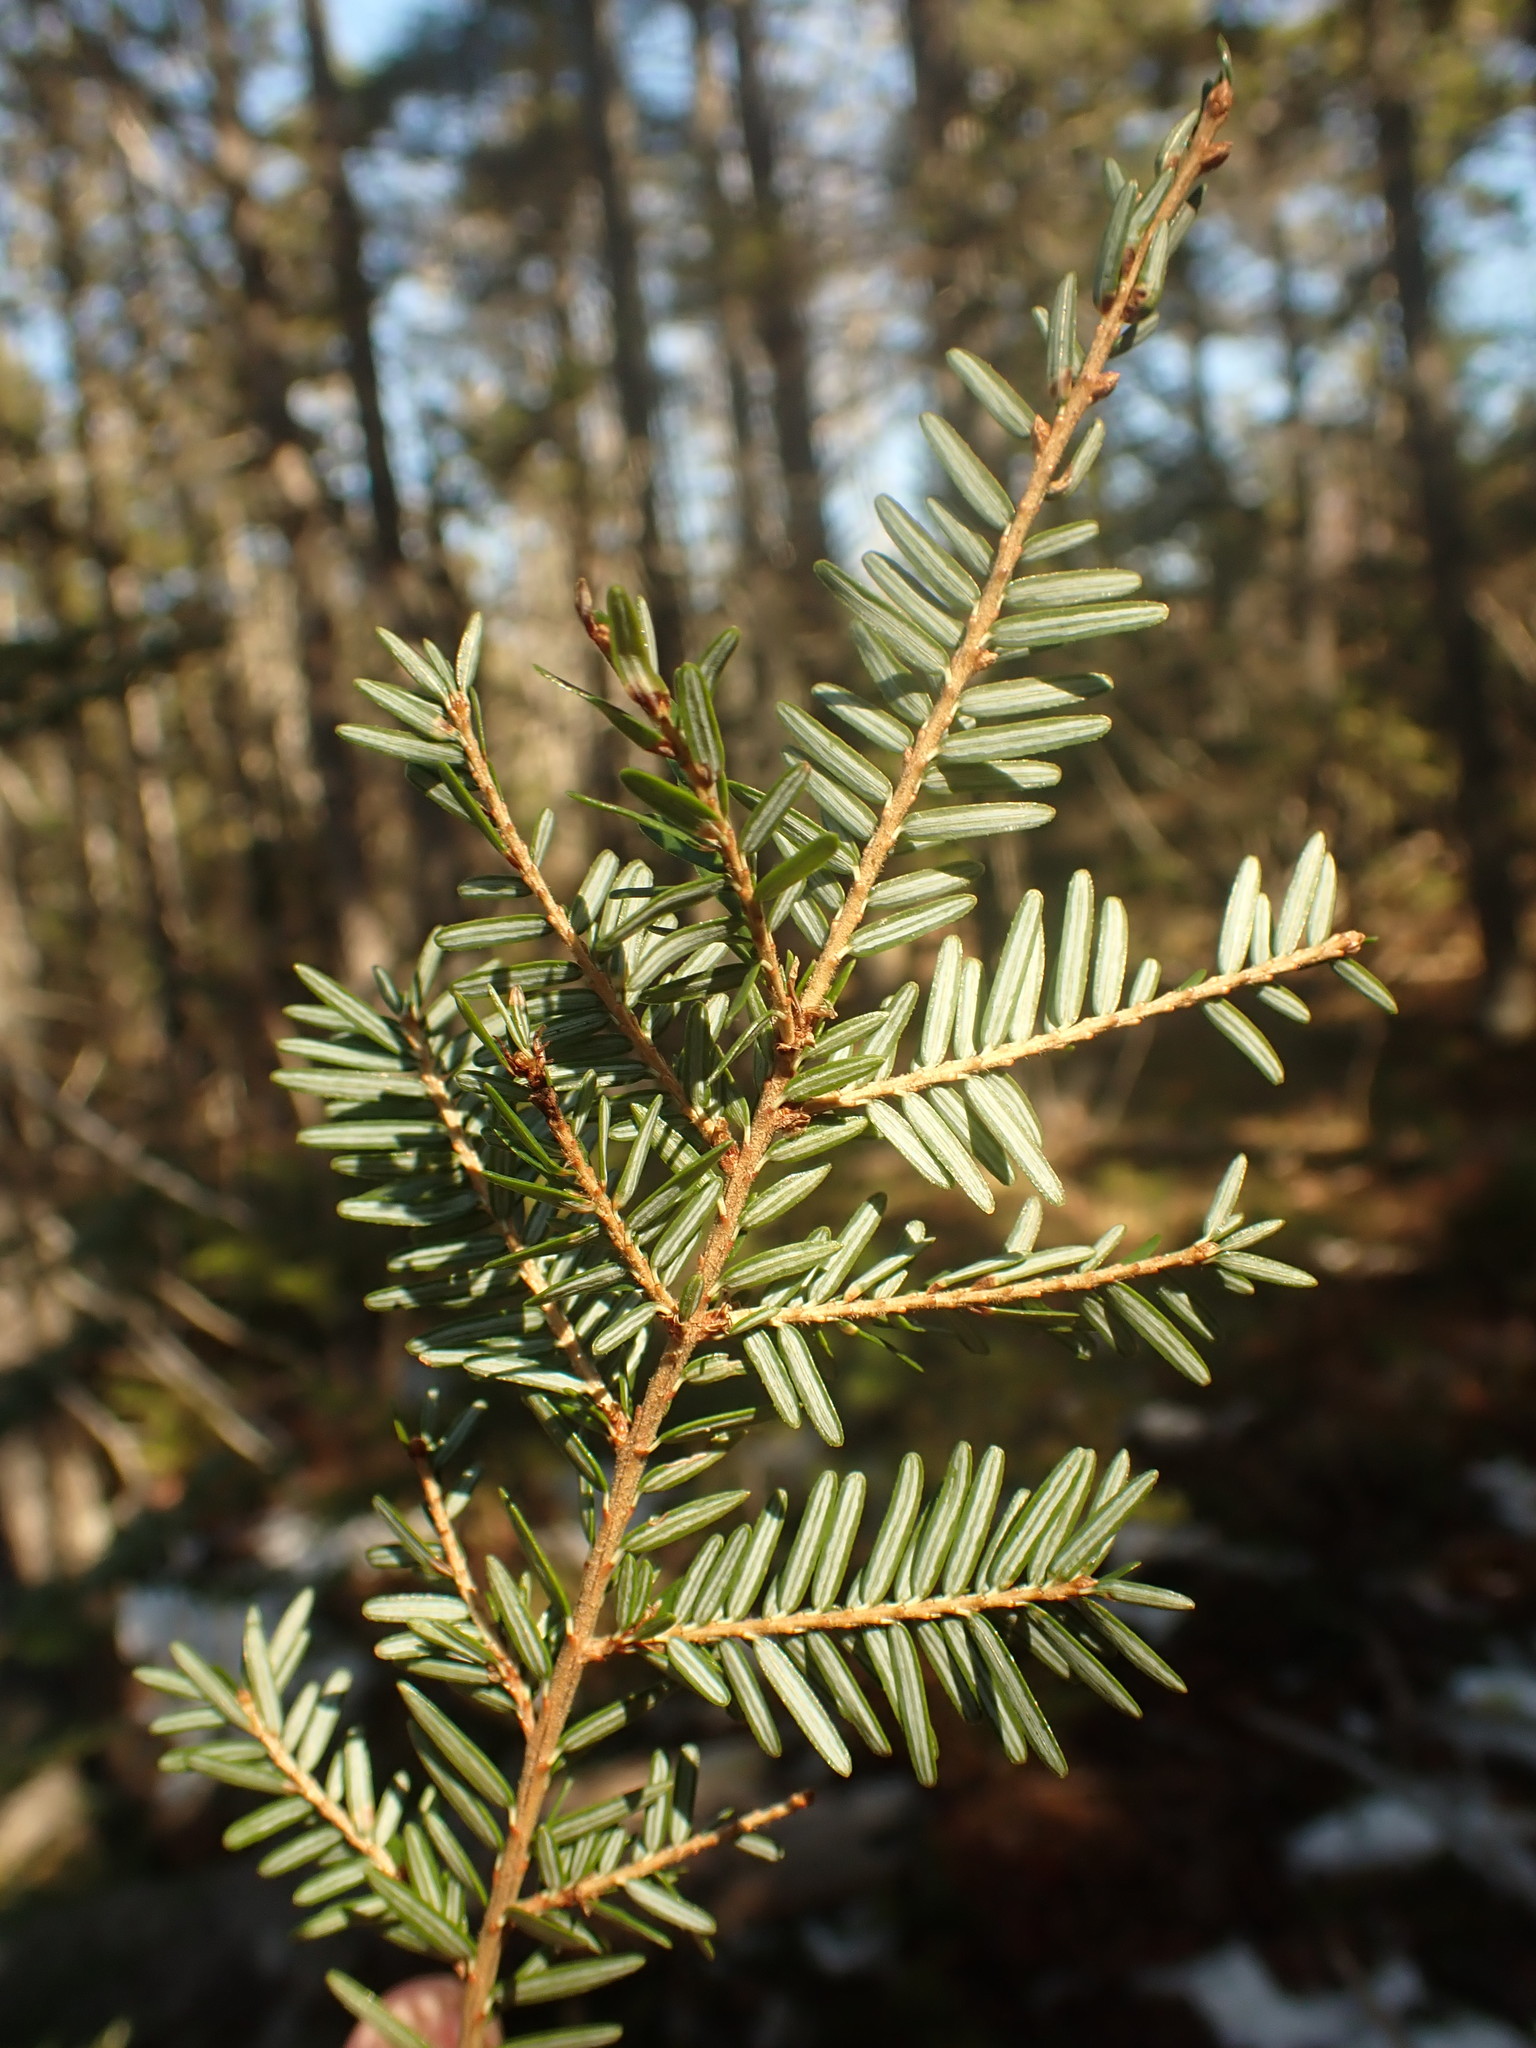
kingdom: Plantae
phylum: Tracheophyta
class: Pinopsida
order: Pinales
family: Pinaceae
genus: Tsuga
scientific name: Tsuga canadensis
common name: Eastern hemlock
